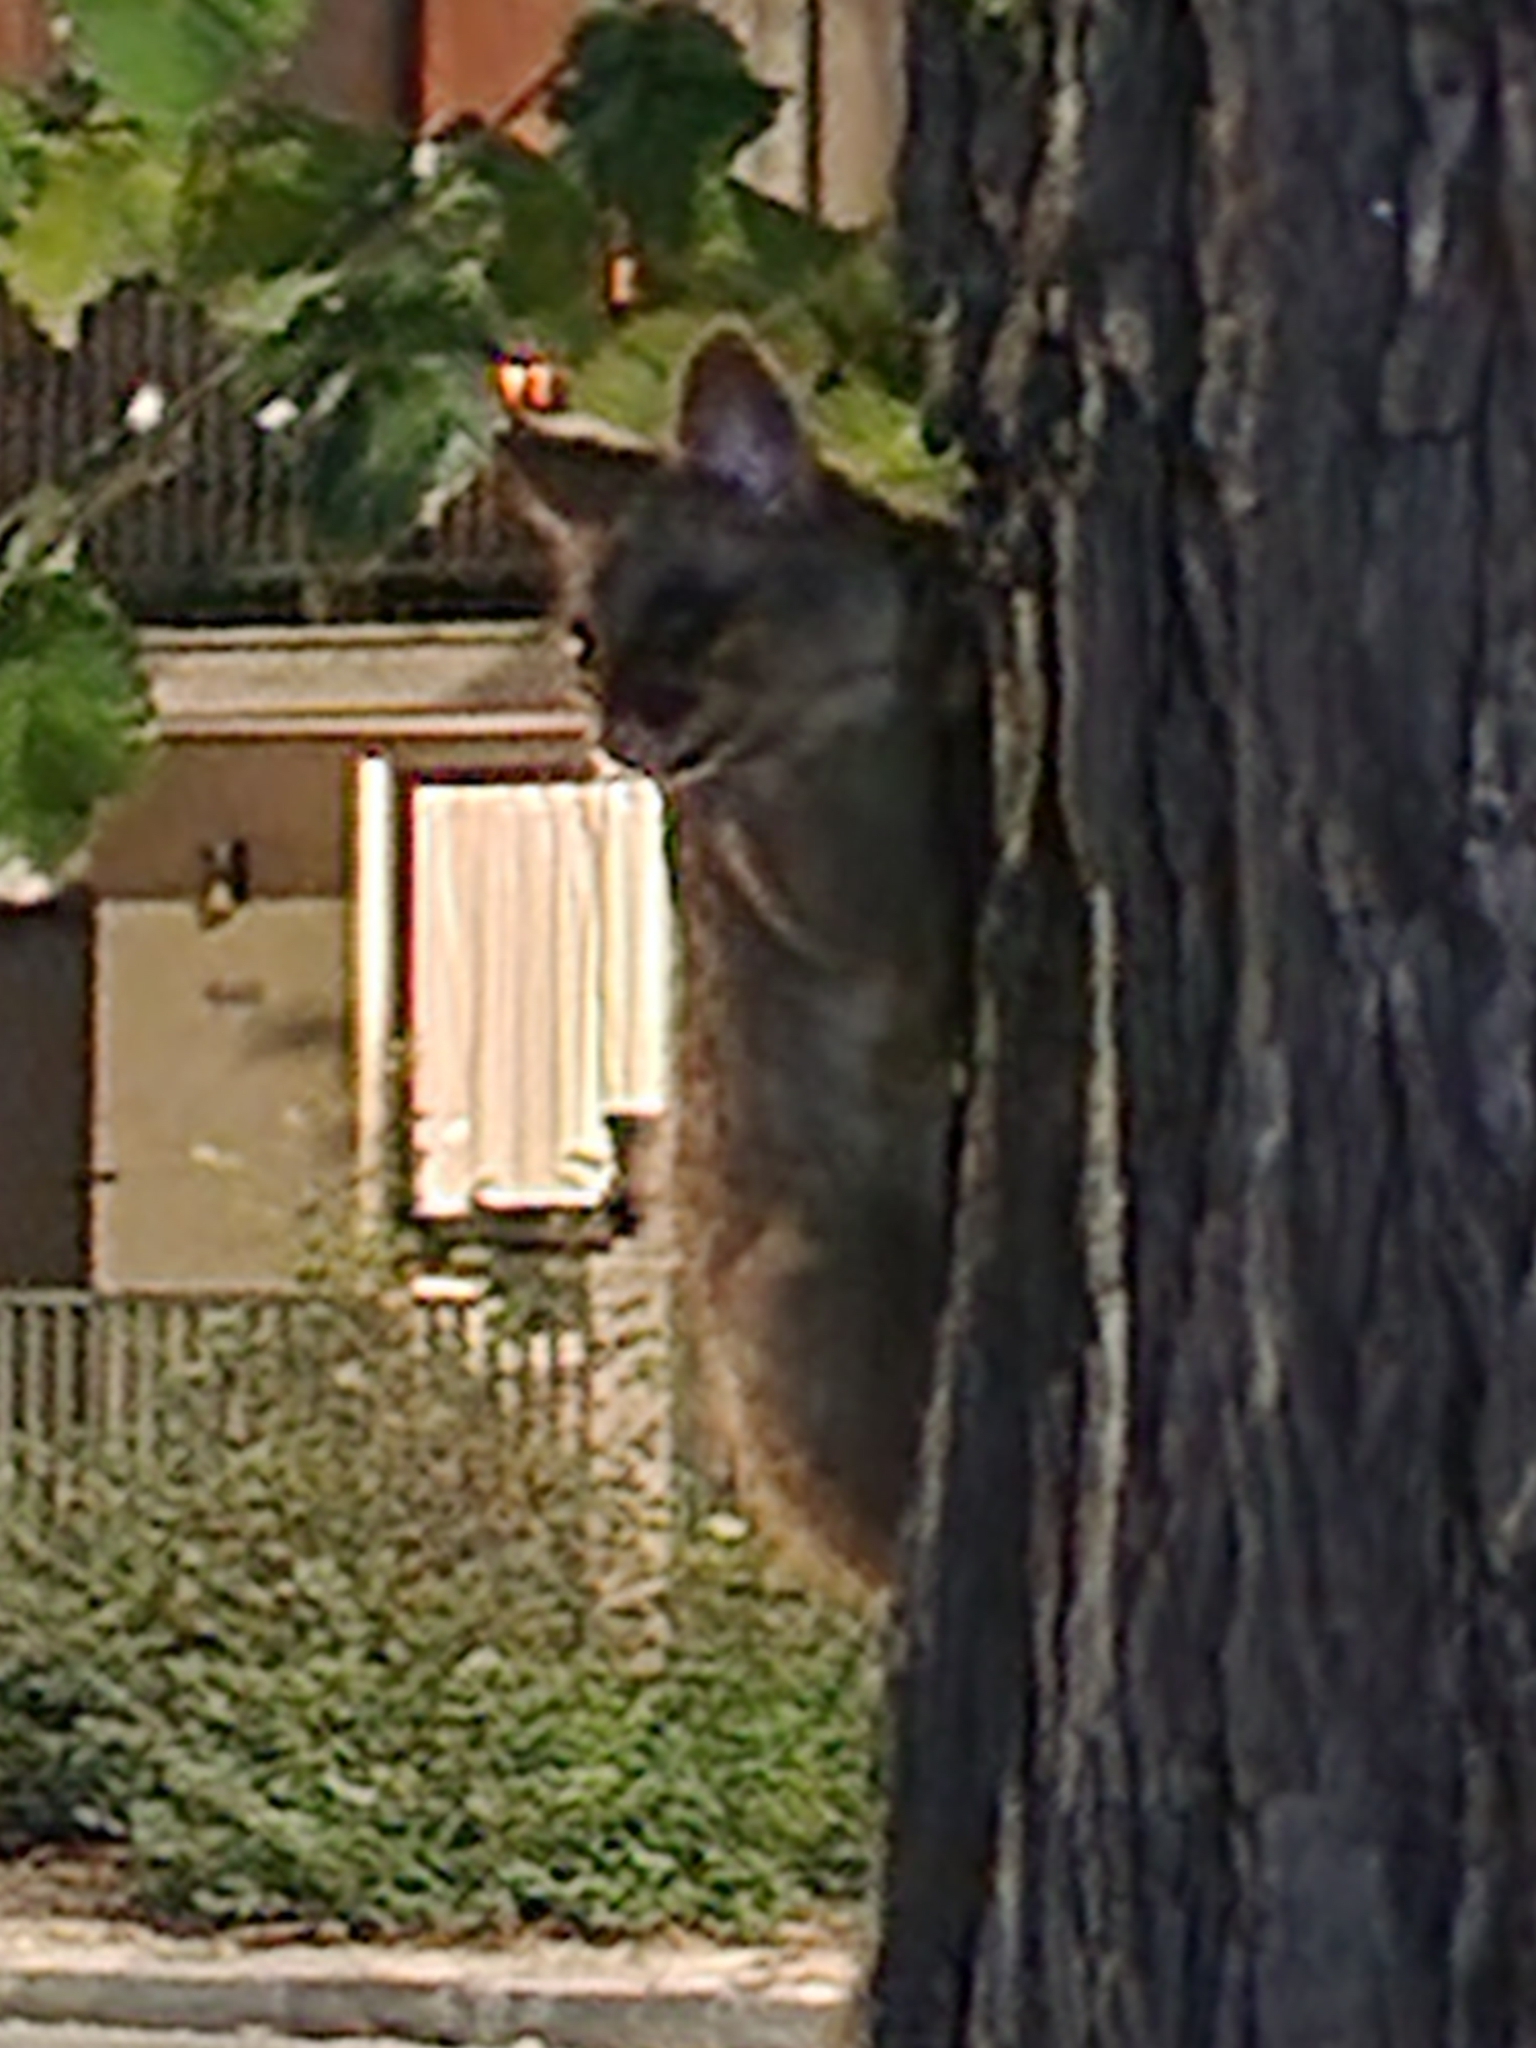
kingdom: Animalia
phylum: Chordata
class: Mammalia
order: Diprotodontia
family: Phalangeridae
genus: Trichosurus
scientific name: Trichosurus vulpecula
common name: Common brushtail
